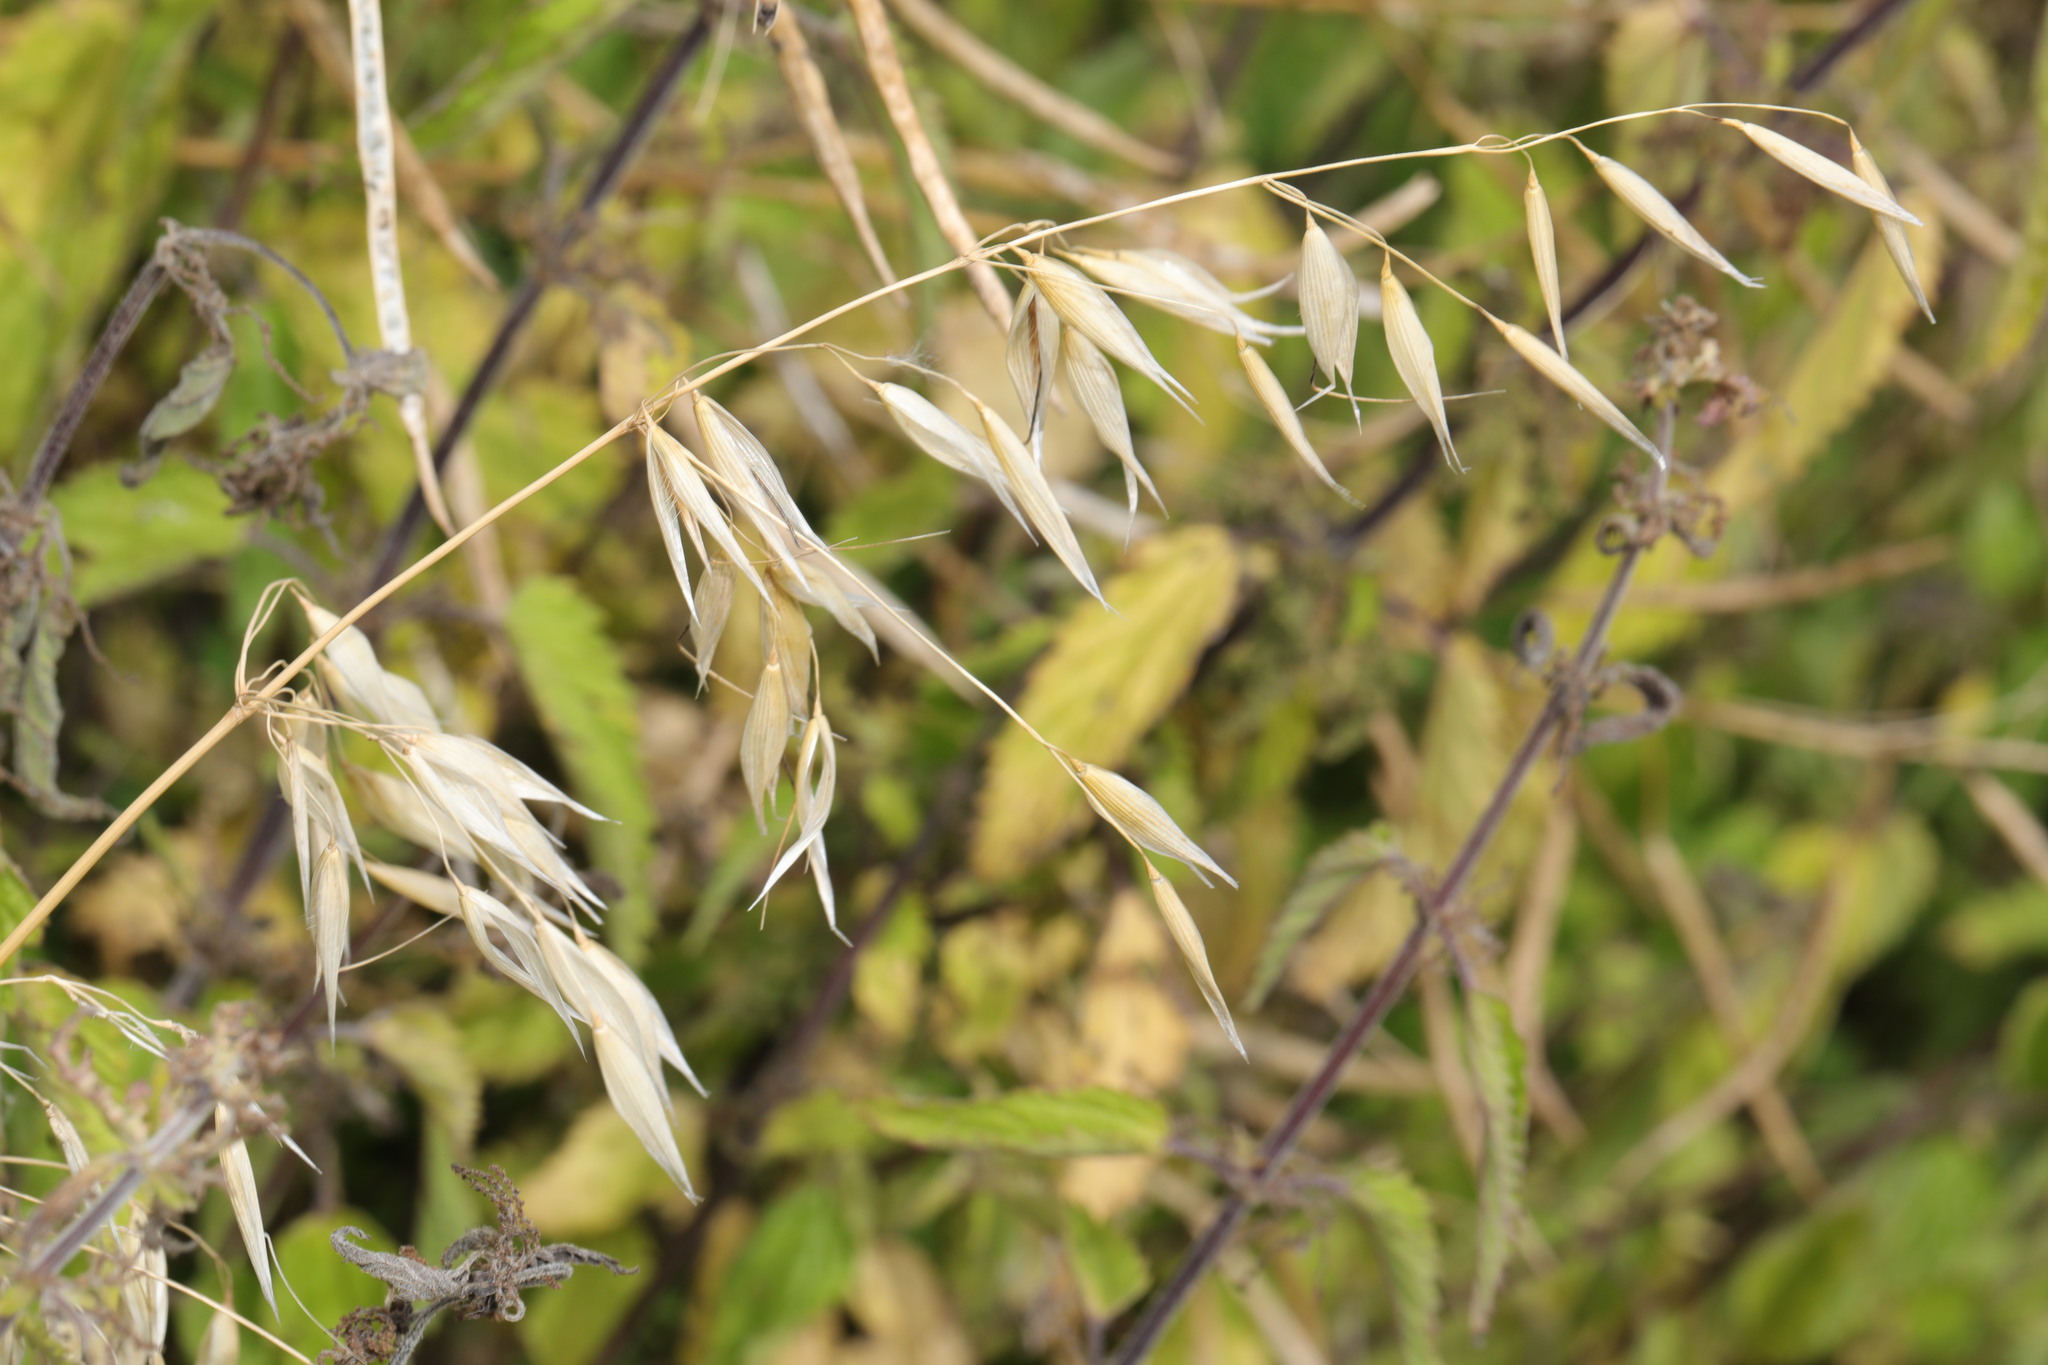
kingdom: Plantae
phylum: Tracheophyta
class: Liliopsida
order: Poales
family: Poaceae
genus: Avena
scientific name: Avena fatua
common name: Wild oat
